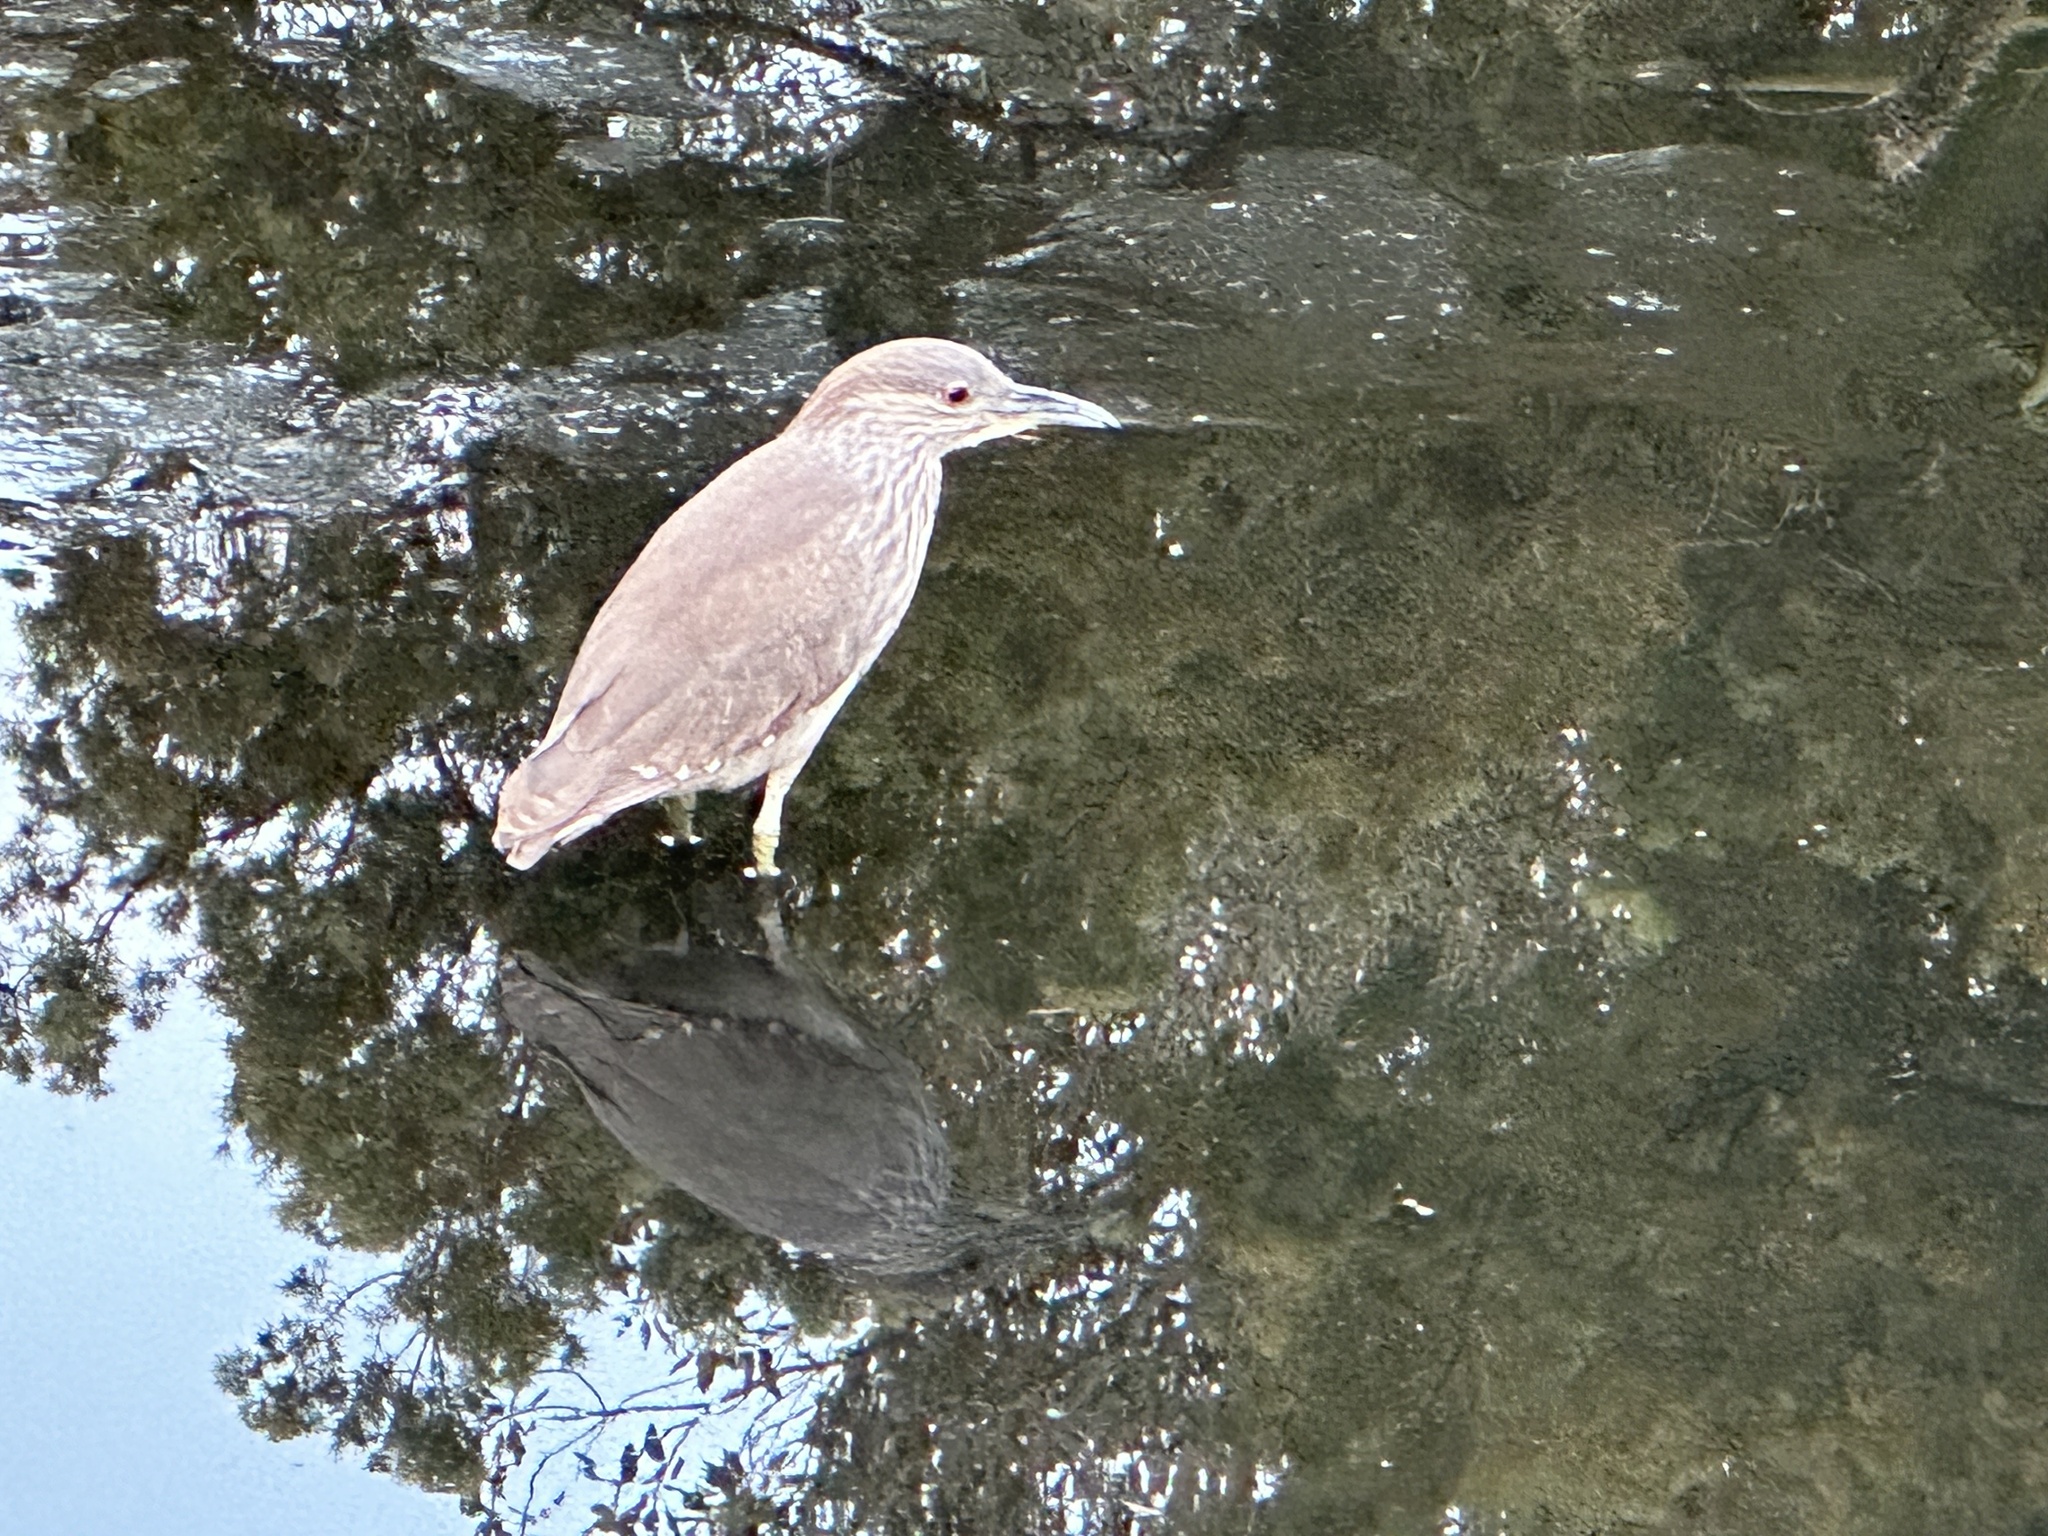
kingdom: Animalia
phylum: Chordata
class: Aves
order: Pelecaniformes
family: Ardeidae
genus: Nycticorax
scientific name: Nycticorax nycticorax
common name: Black-crowned night heron
